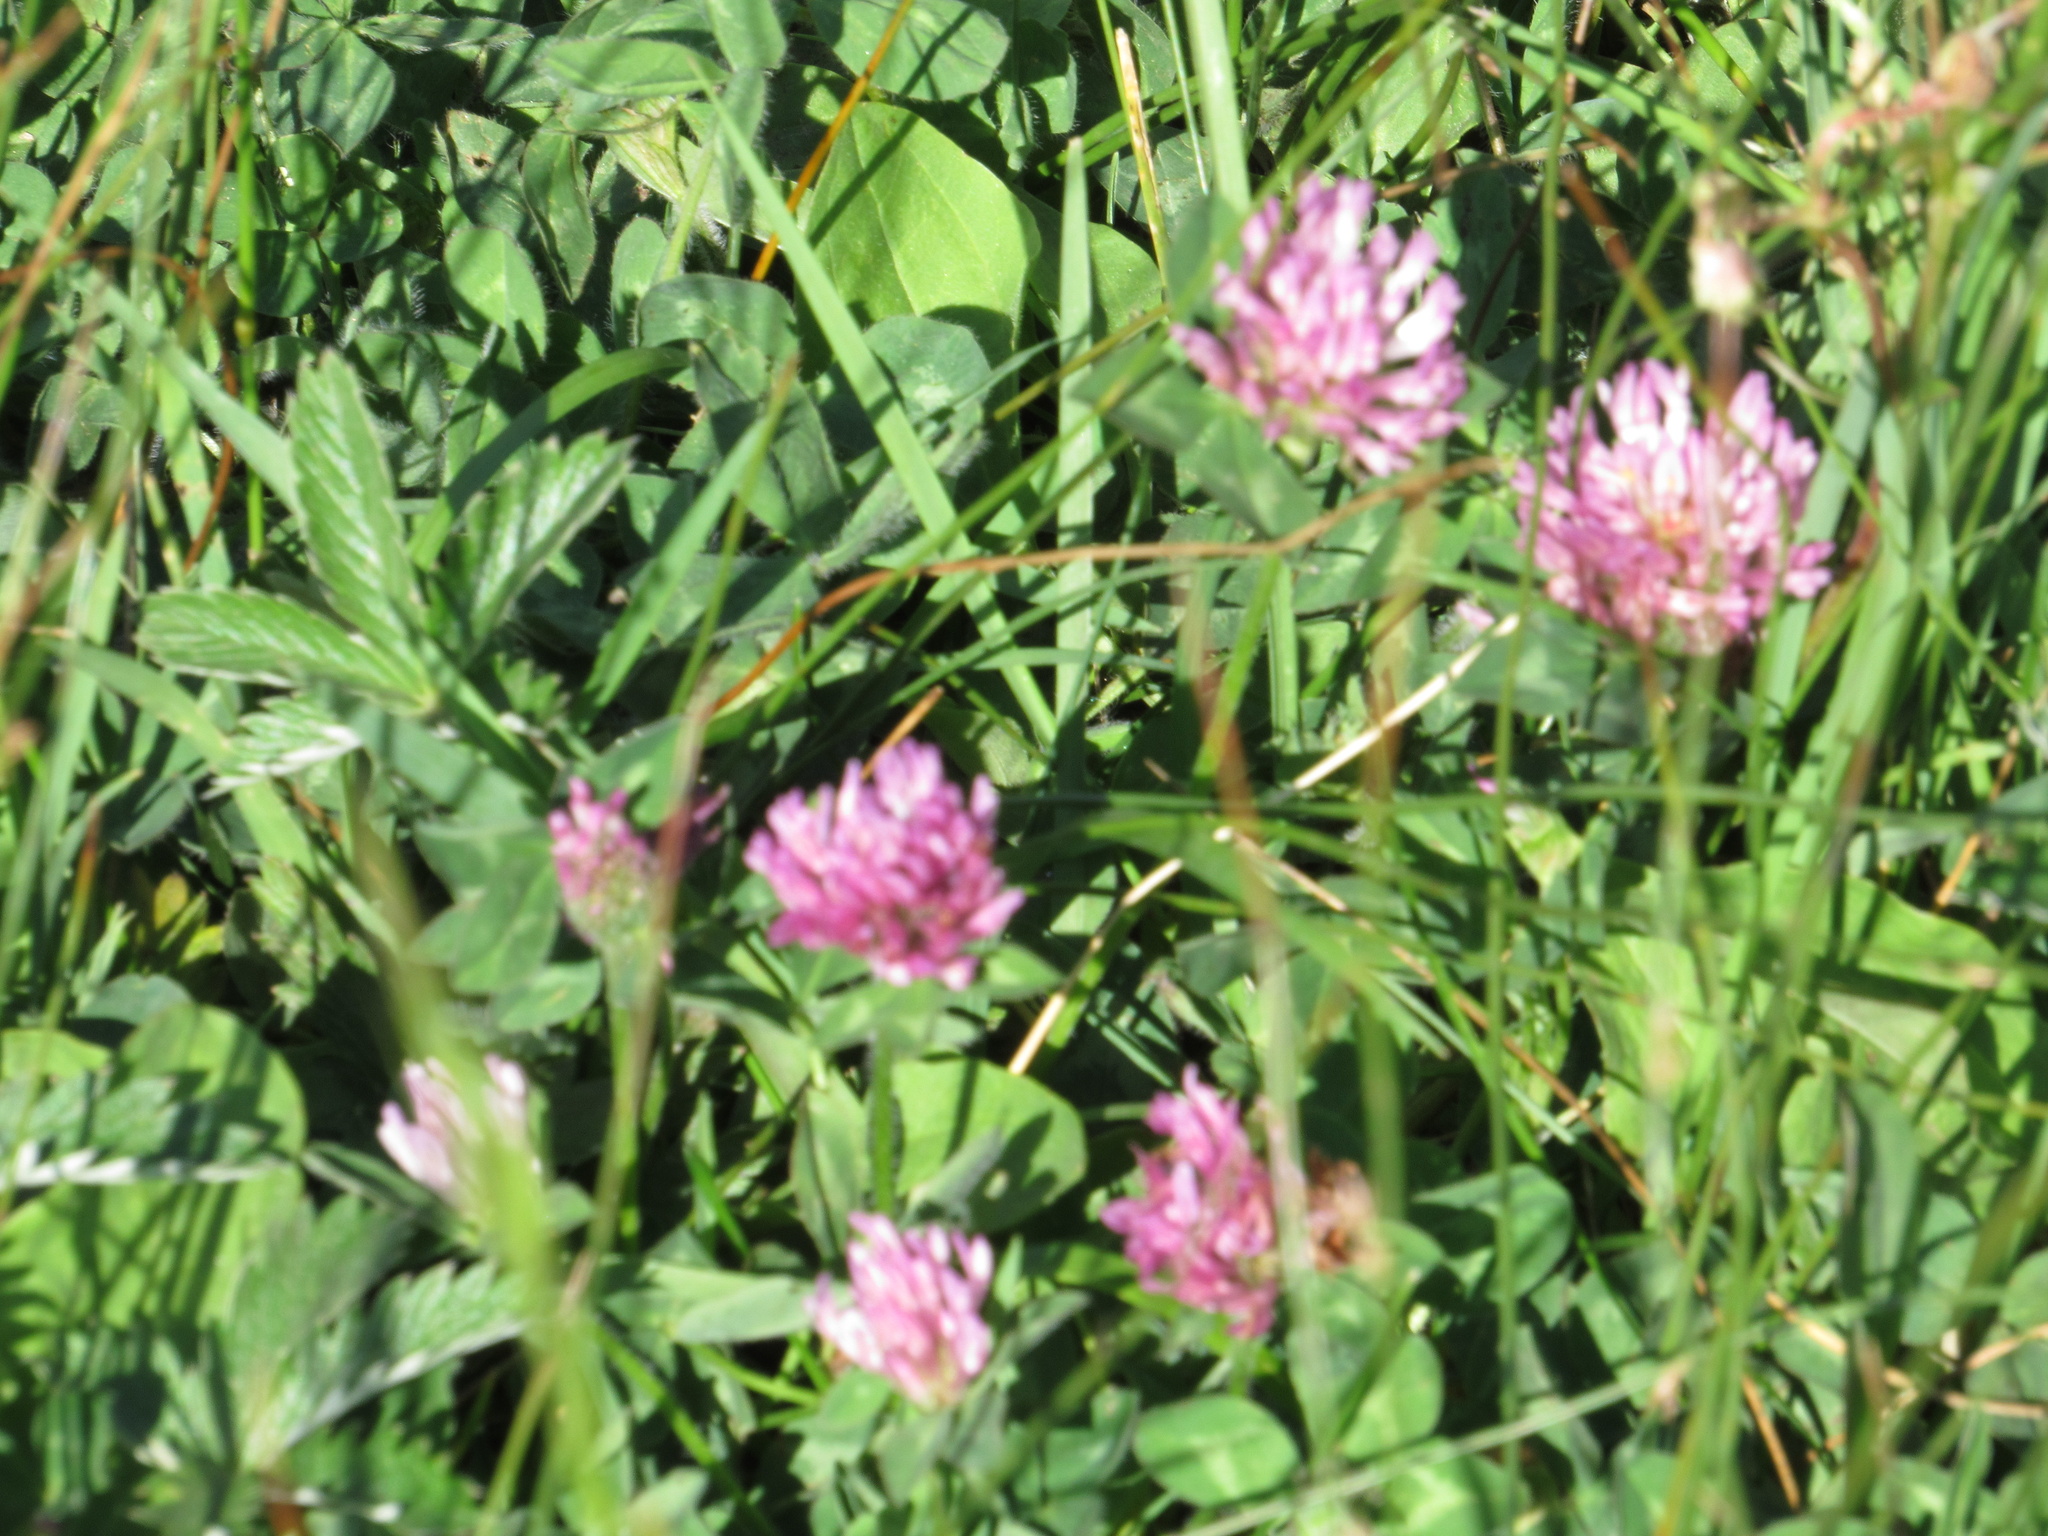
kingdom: Plantae
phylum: Tracheophyta
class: Magnoliopsida
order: Fabales
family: Fabaceae
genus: Trifolium
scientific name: Trifolium pratense
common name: Red clover
